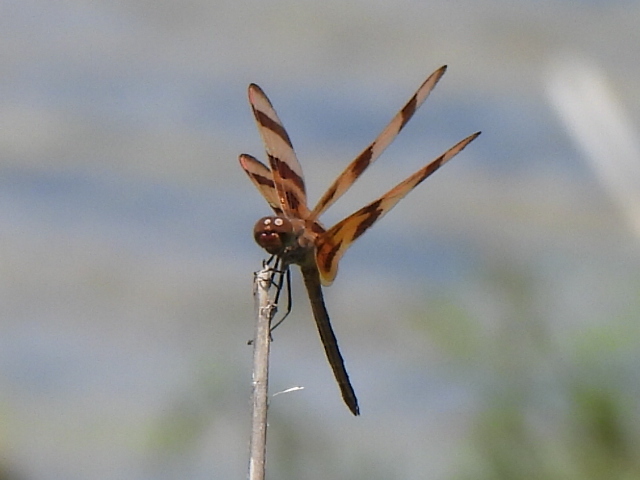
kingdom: Animalia
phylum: Arthropoda
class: Insecta
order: Odonata
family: Libellulidae
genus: Celithemis
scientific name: Celithemis eponina
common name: Halloween pennant
